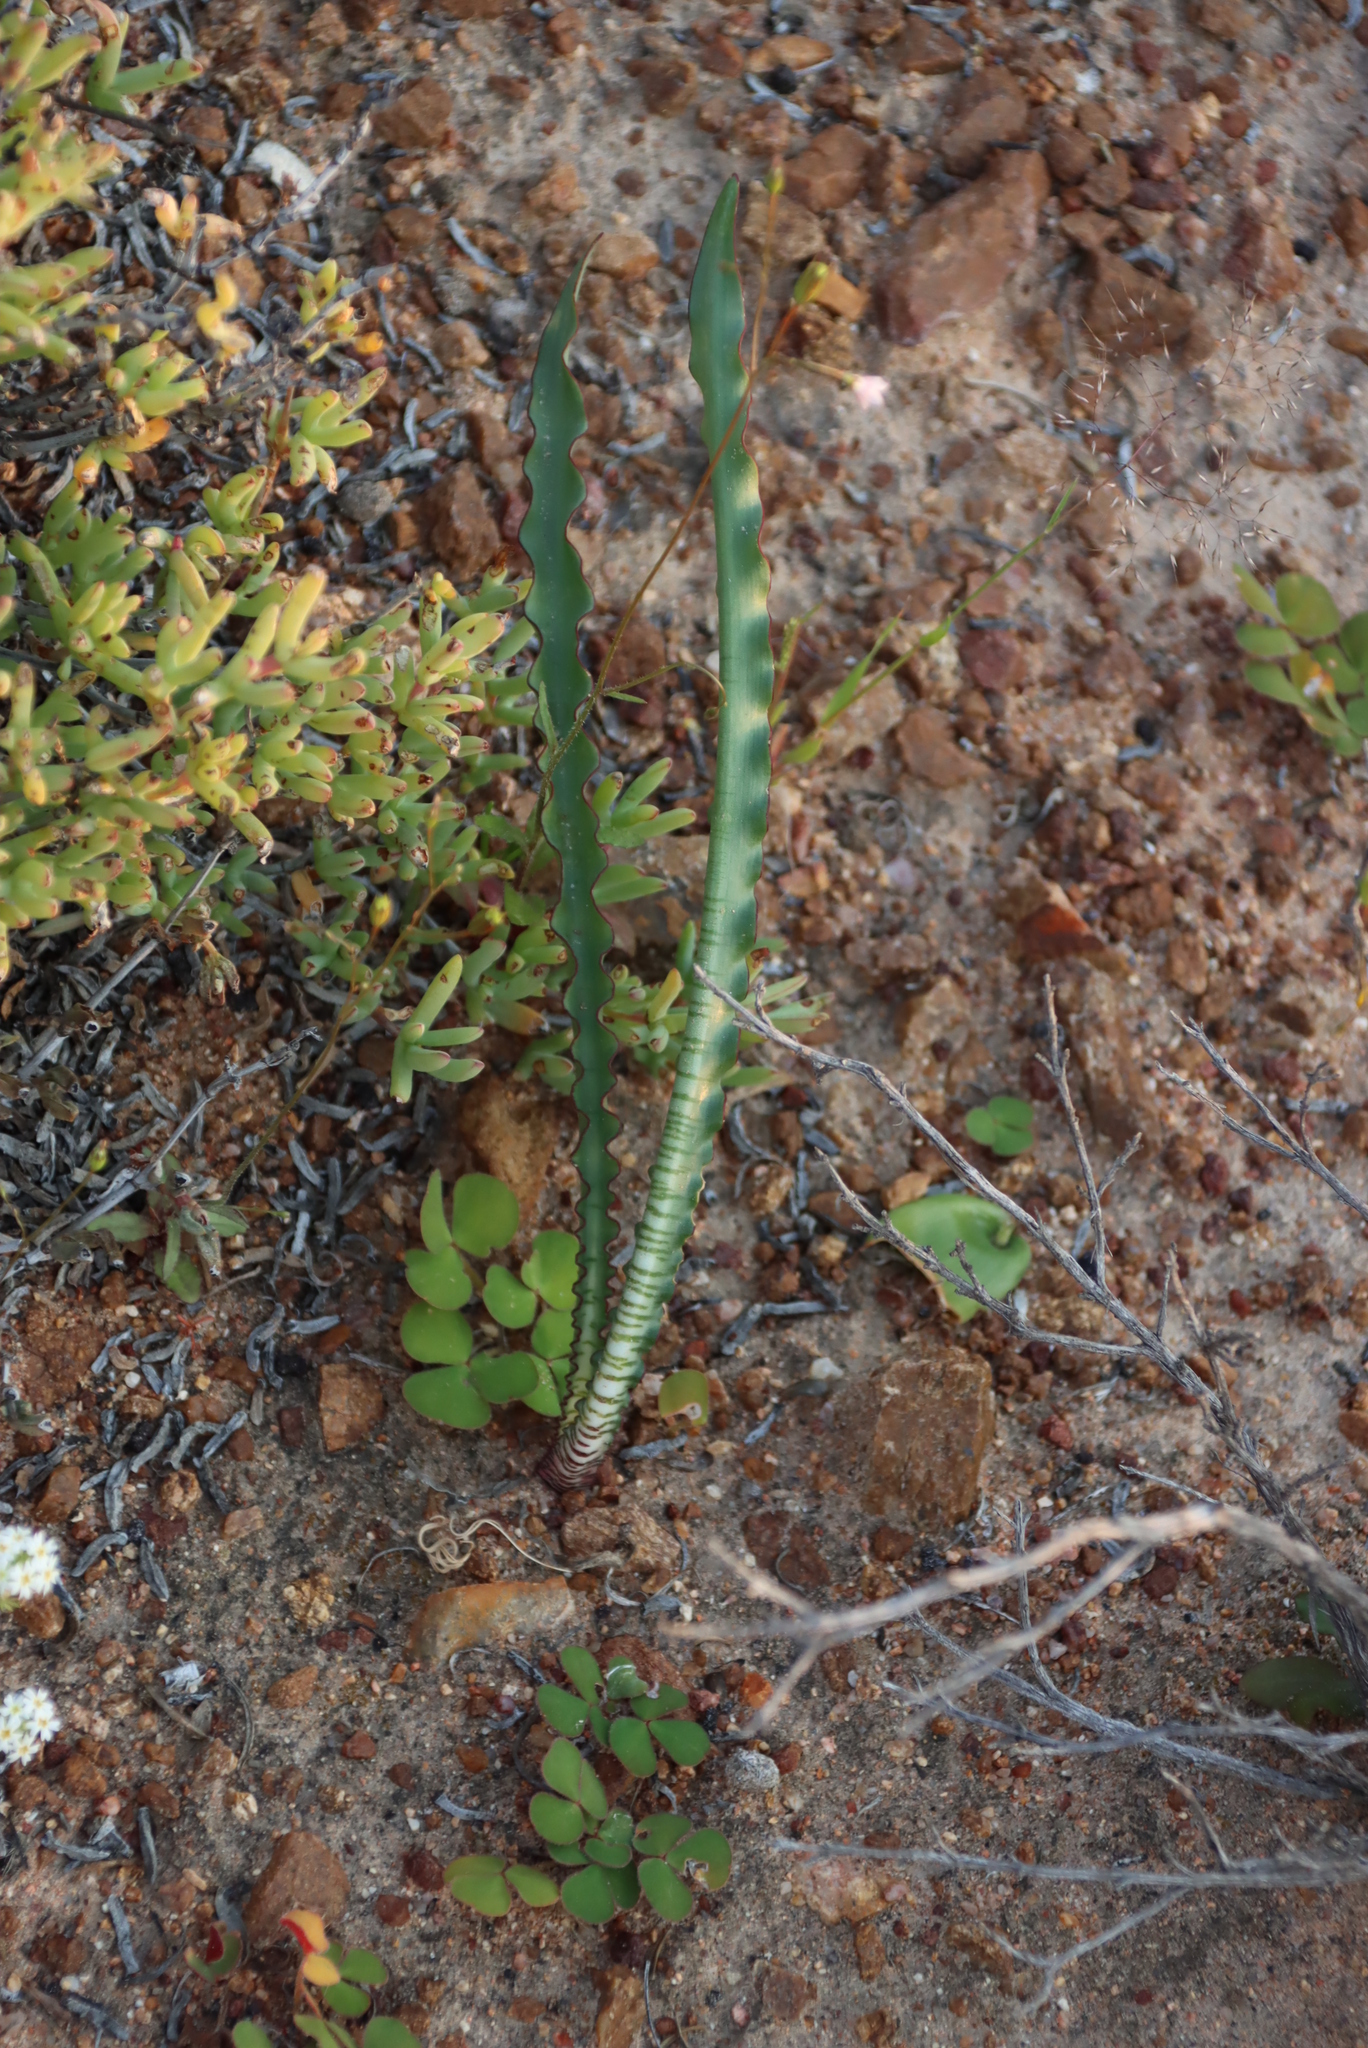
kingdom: Plantae
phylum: Tracheophyta
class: Liliopsida
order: Asparagales
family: Amaryllidaceae
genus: Haemanthus
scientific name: Haemanthus crispus
